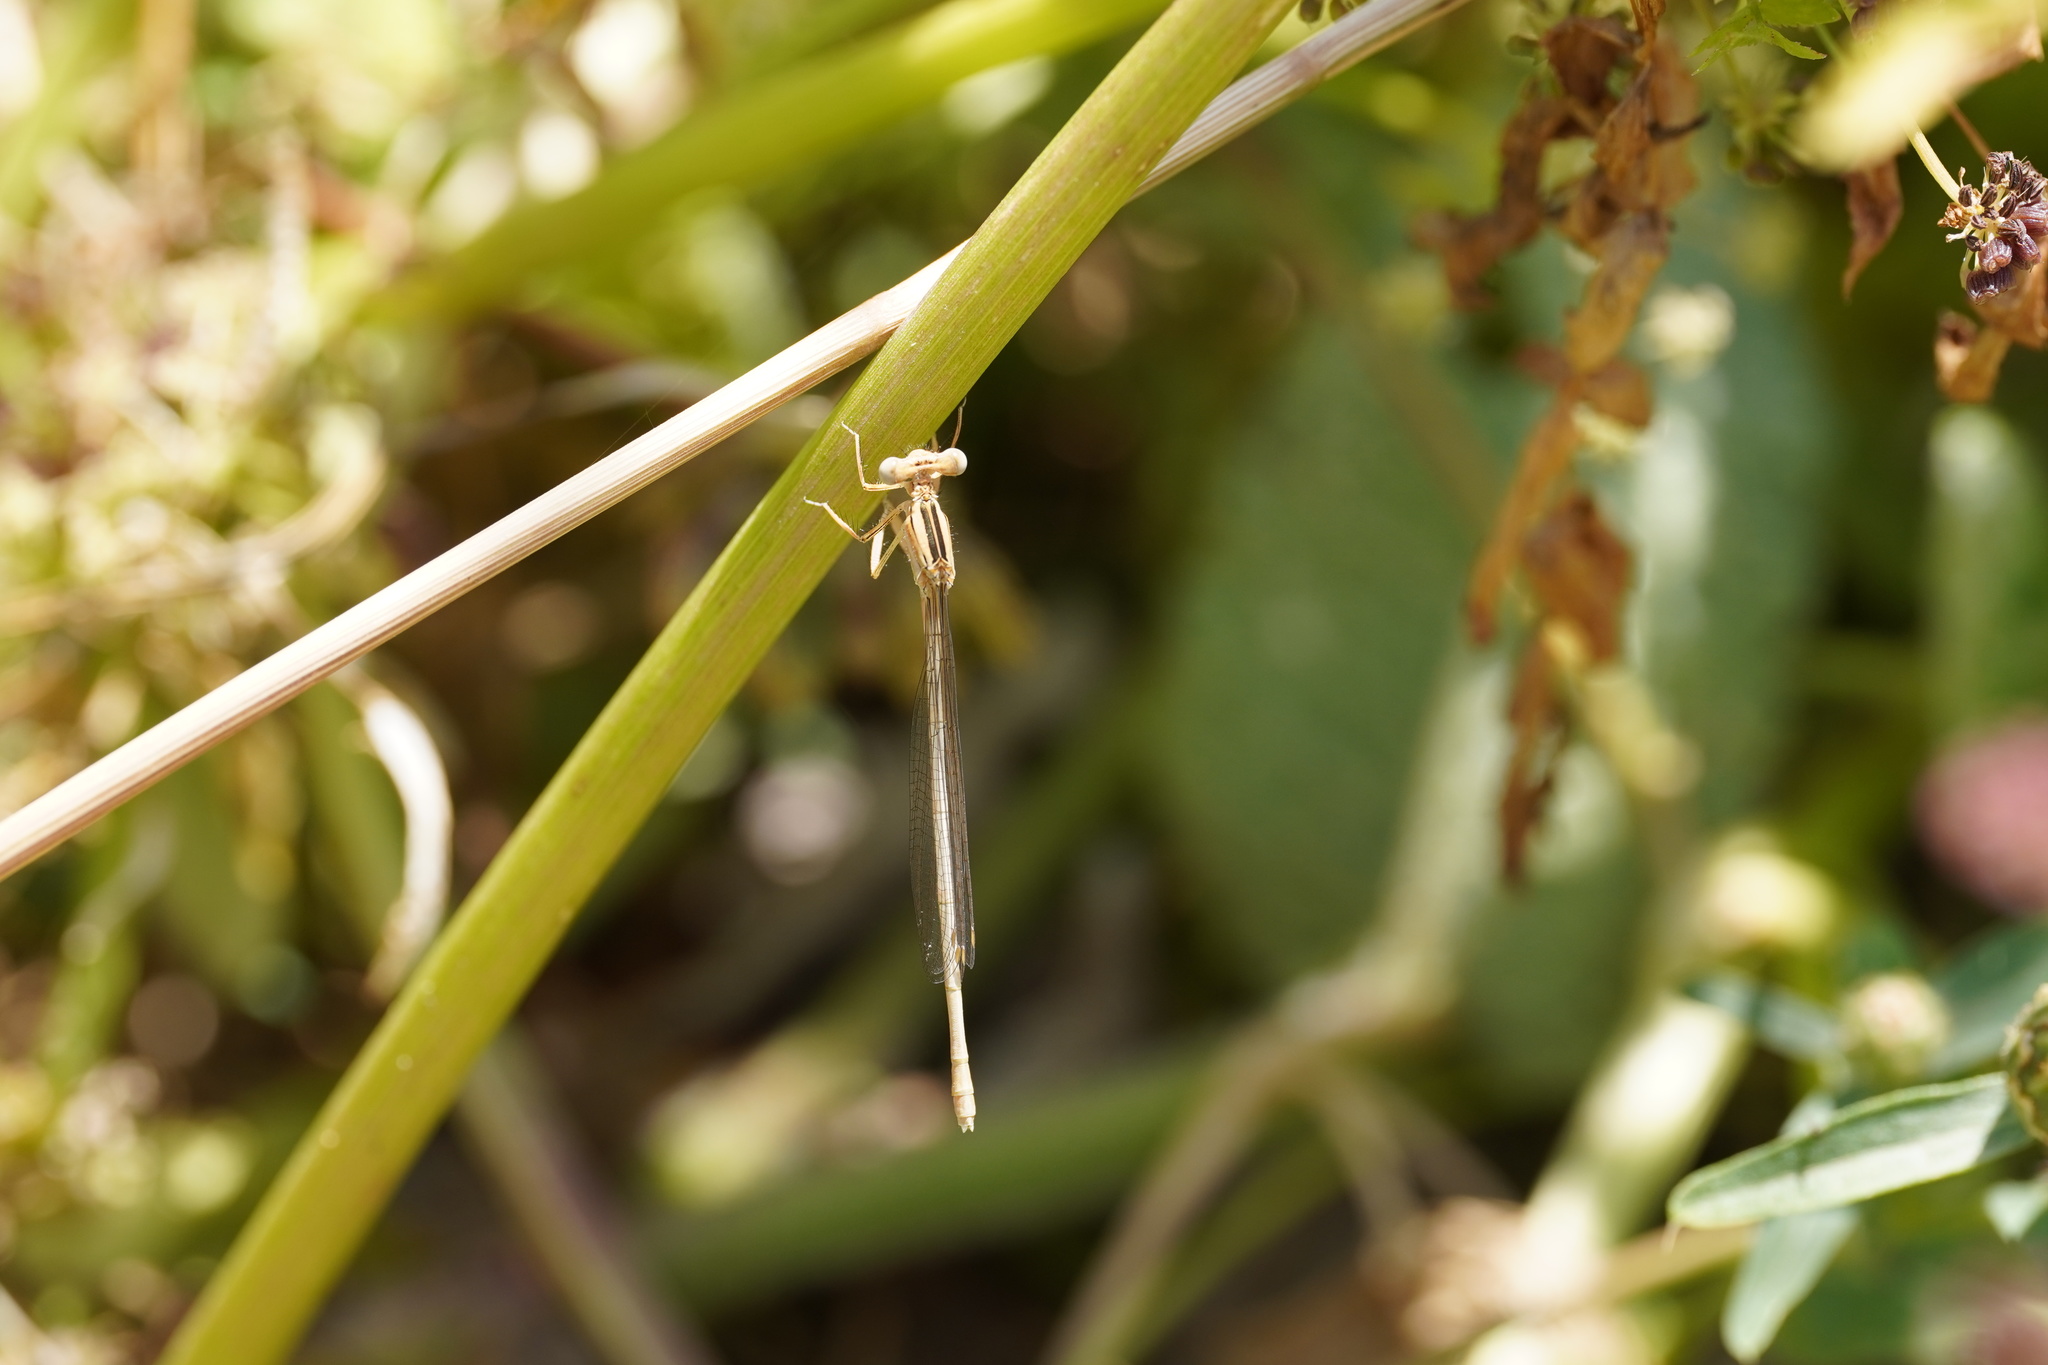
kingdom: Animalia
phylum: Arthropoda
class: Insecta
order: Odonata
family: Platycnemididae
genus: Platycnemis
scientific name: Platycnemis latipes
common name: White featherleg
